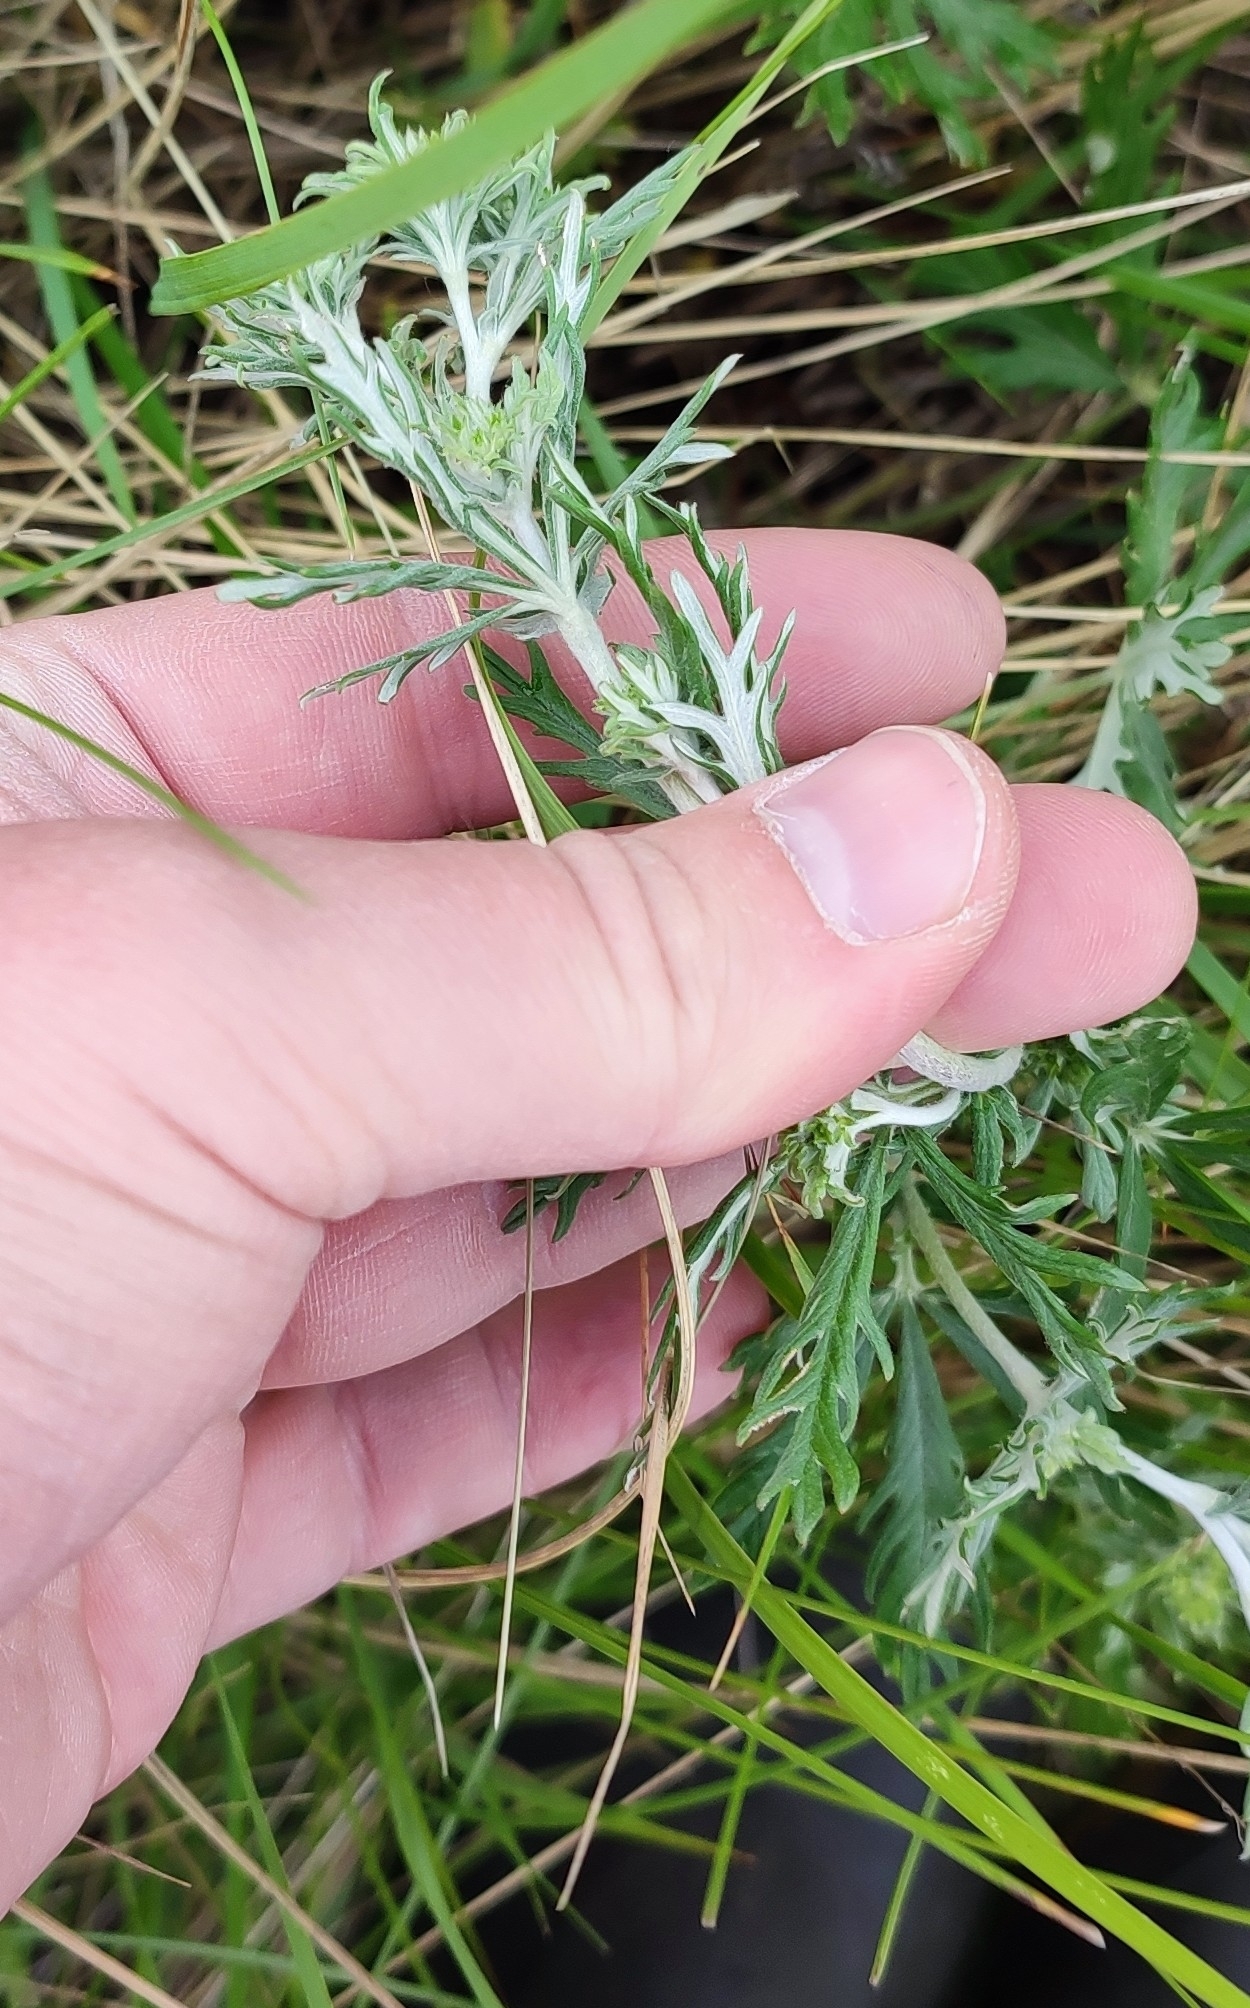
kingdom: Plantae
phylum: Tracheophyta
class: Magnoliopsida
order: Rosales
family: Rosaceae
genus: Potentilla
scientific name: Potentilla argentea
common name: Hoary cinquefoil
